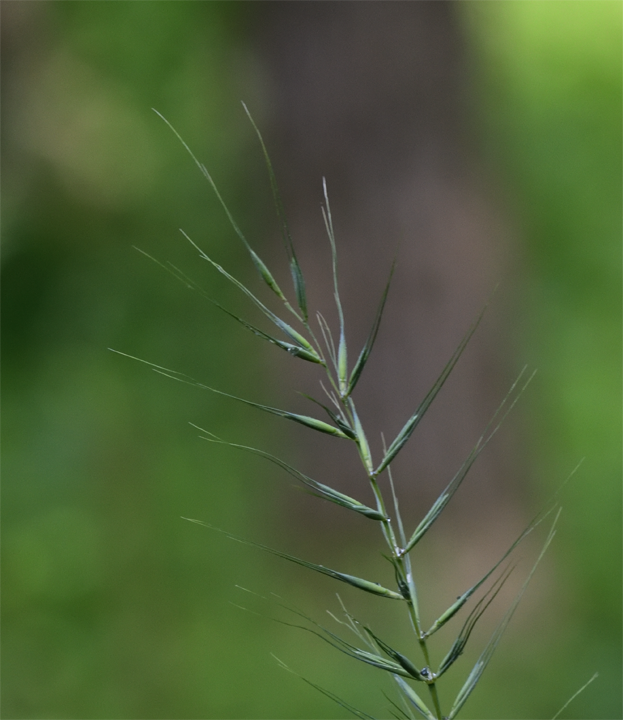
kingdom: Plantae
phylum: Tracheophyta
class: Liliopsida
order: Poales
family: Poaceae
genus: Elymus
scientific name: Elymus hystrix
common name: Bottlebrush grass
